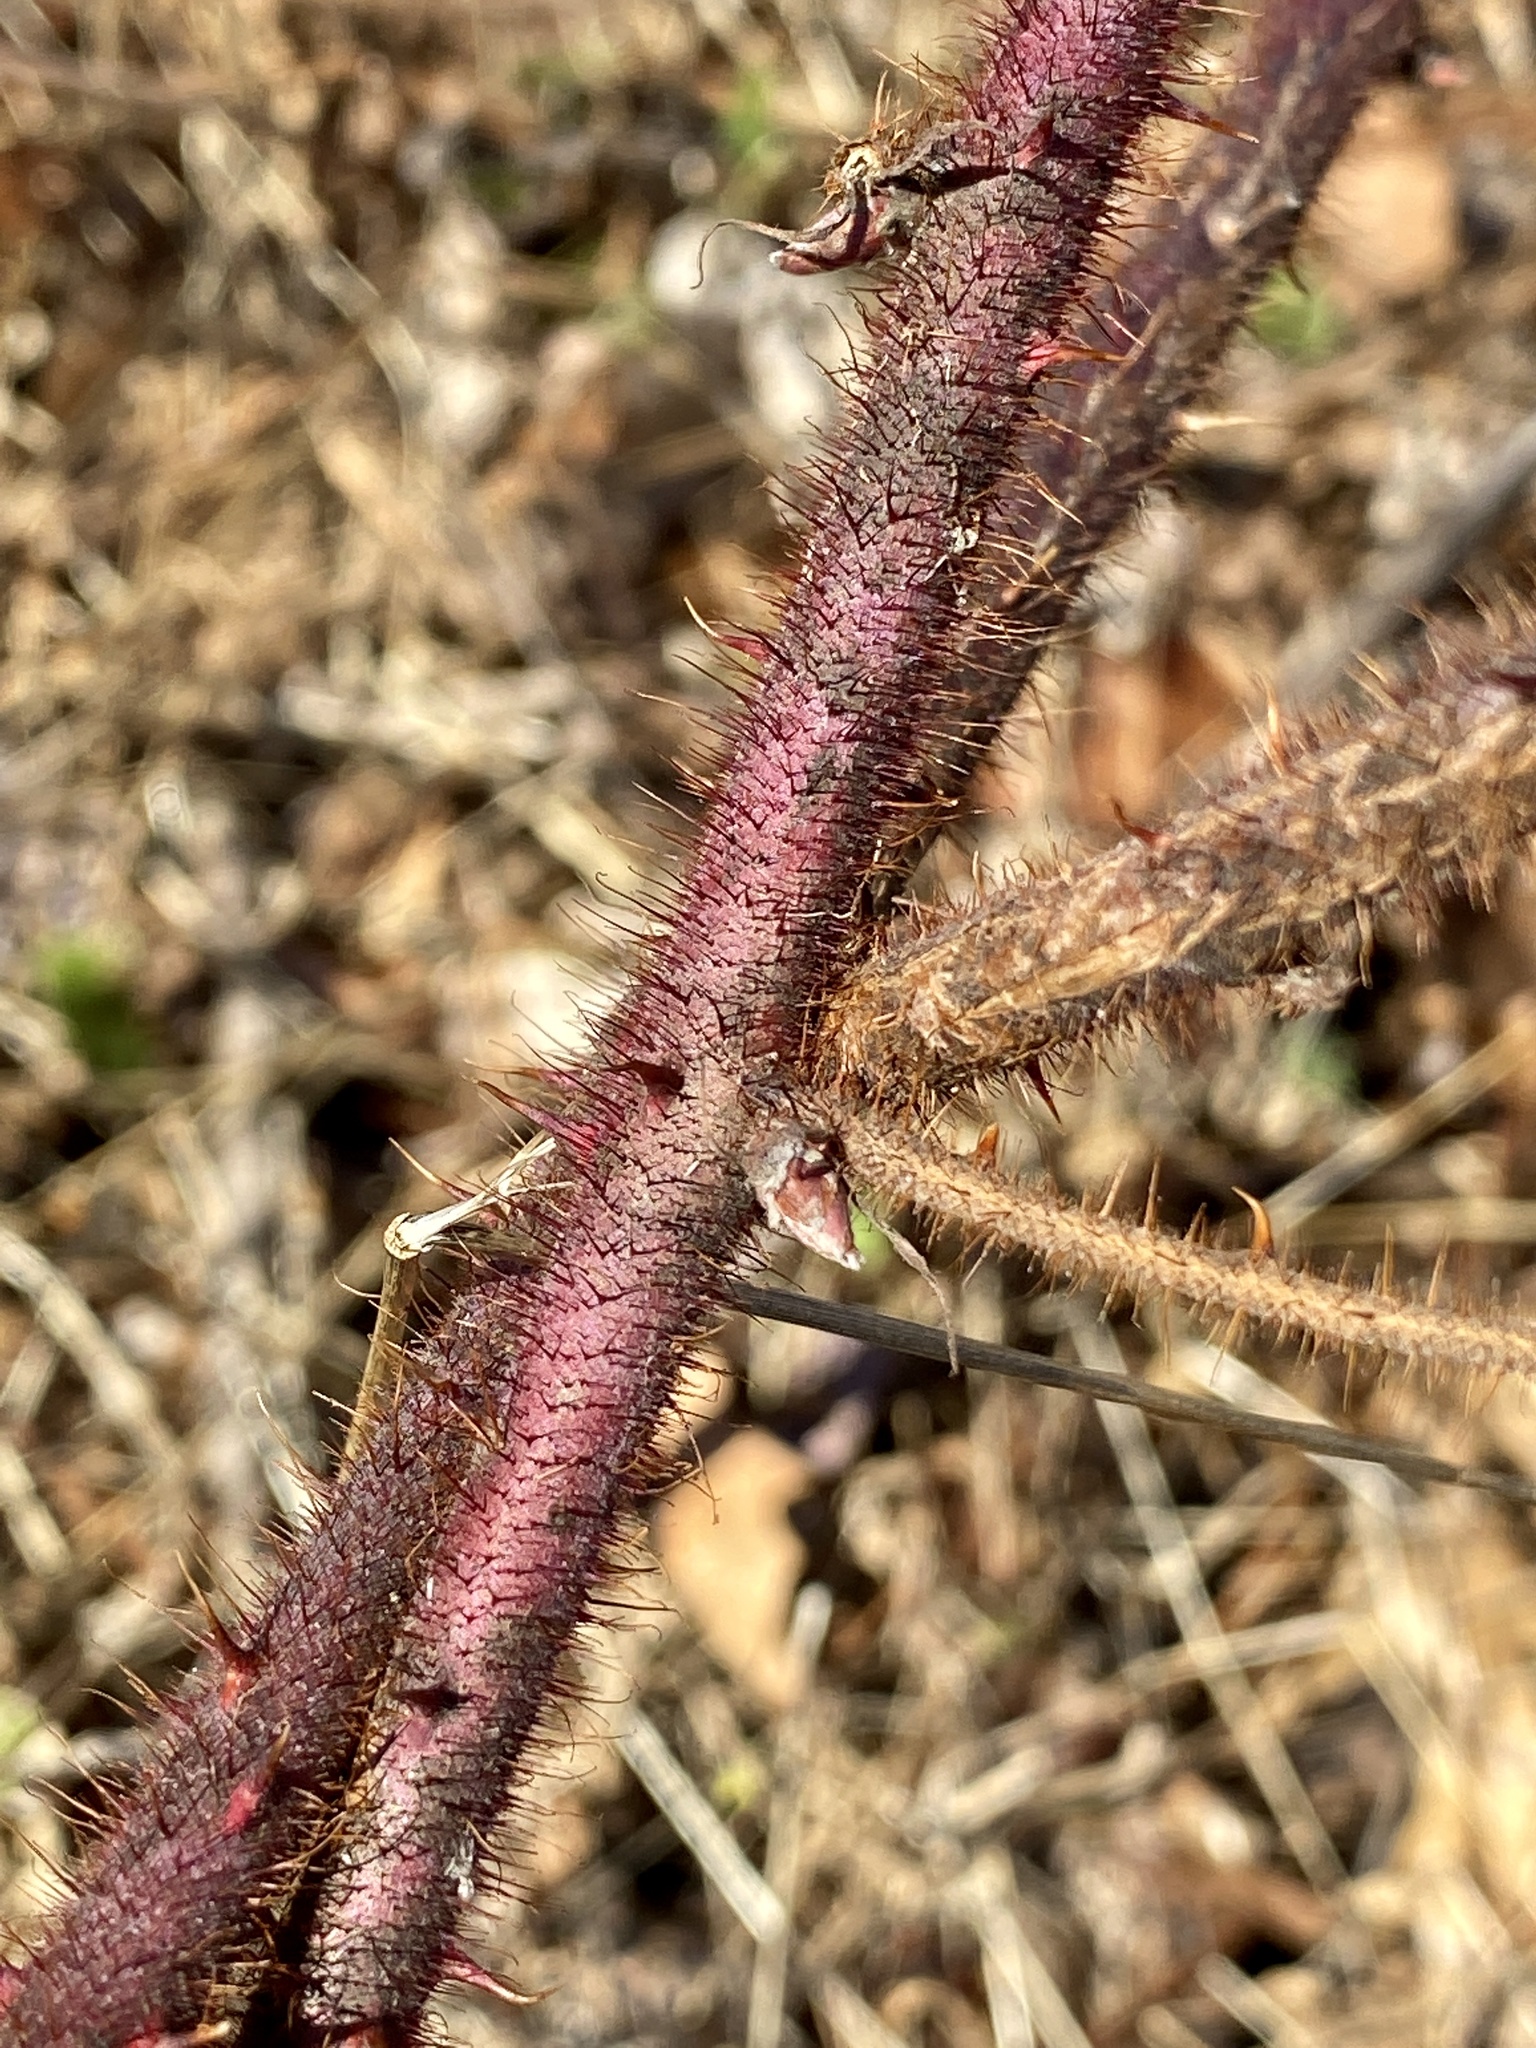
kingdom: Plantae
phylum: Tracheophyta
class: Magnoliopsida
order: Rosales
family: Rosaceae
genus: Rubus
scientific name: Rubus phoenicolasius
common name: Japanese wineberry
